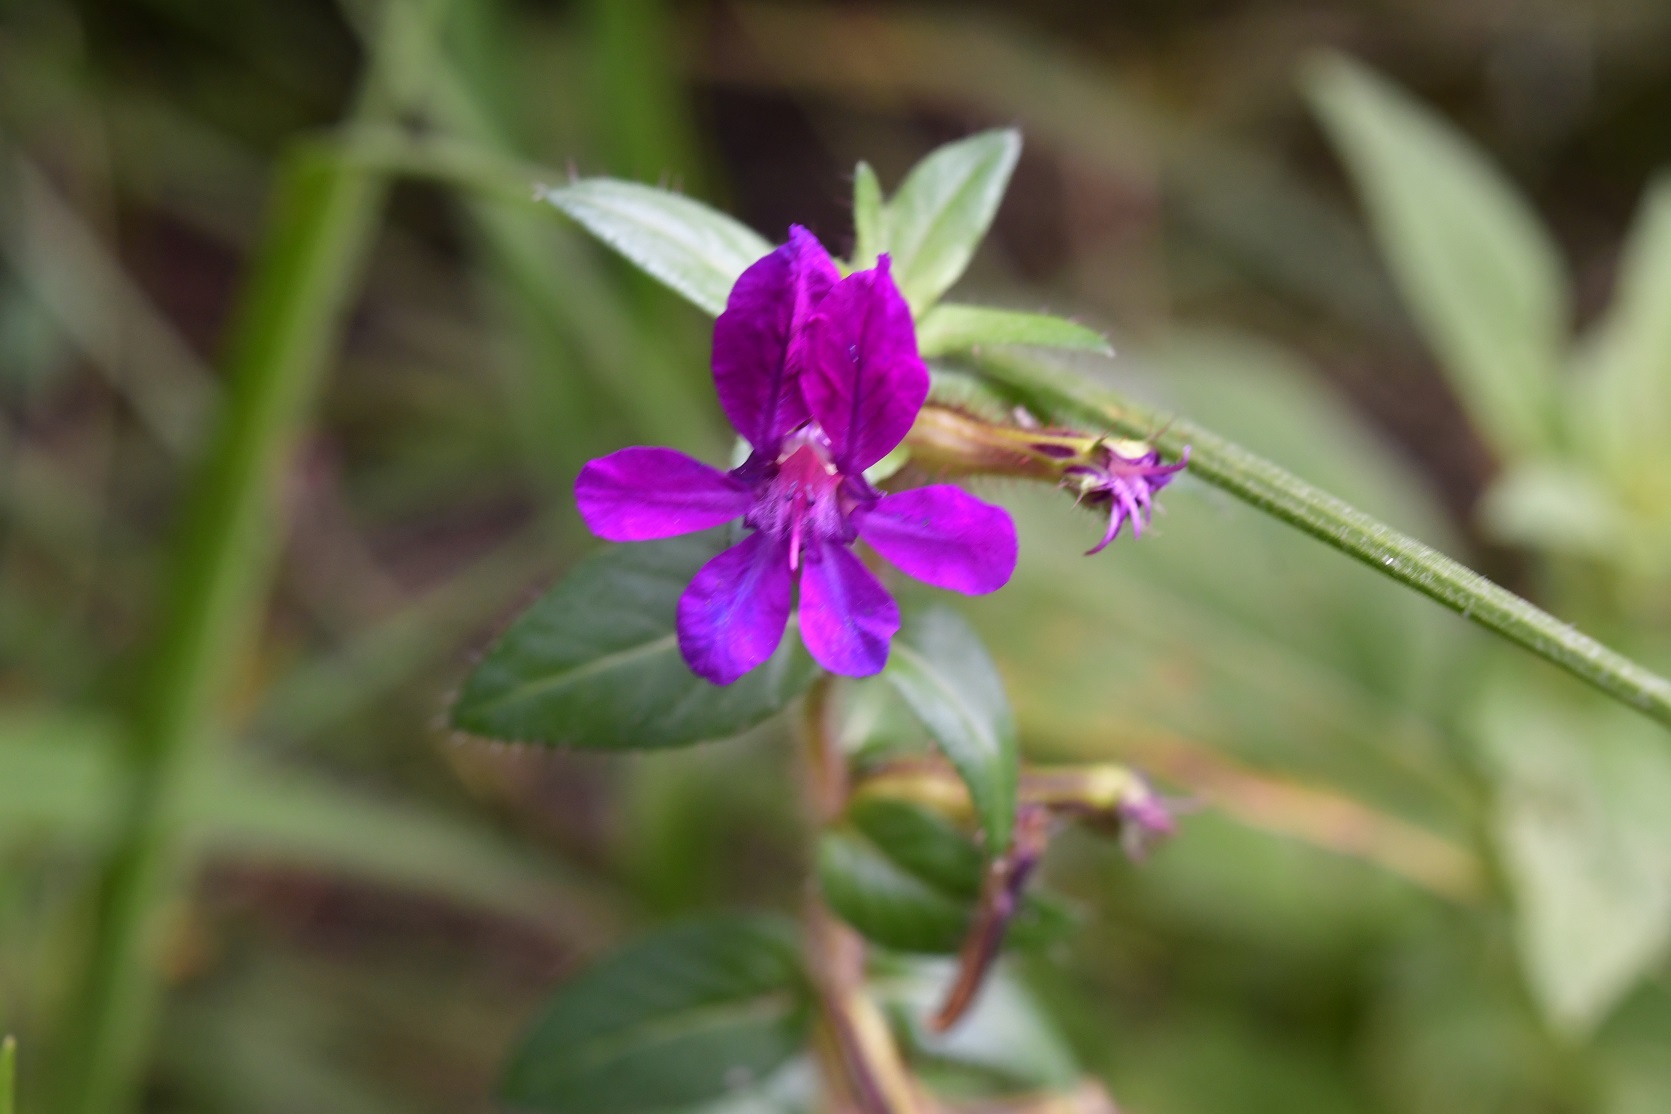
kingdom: Plantae
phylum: Tracheophyta
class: Magnoliopsida
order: Myrtales
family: Lythraceae
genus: Cuphea
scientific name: Cuphea aequipetala
